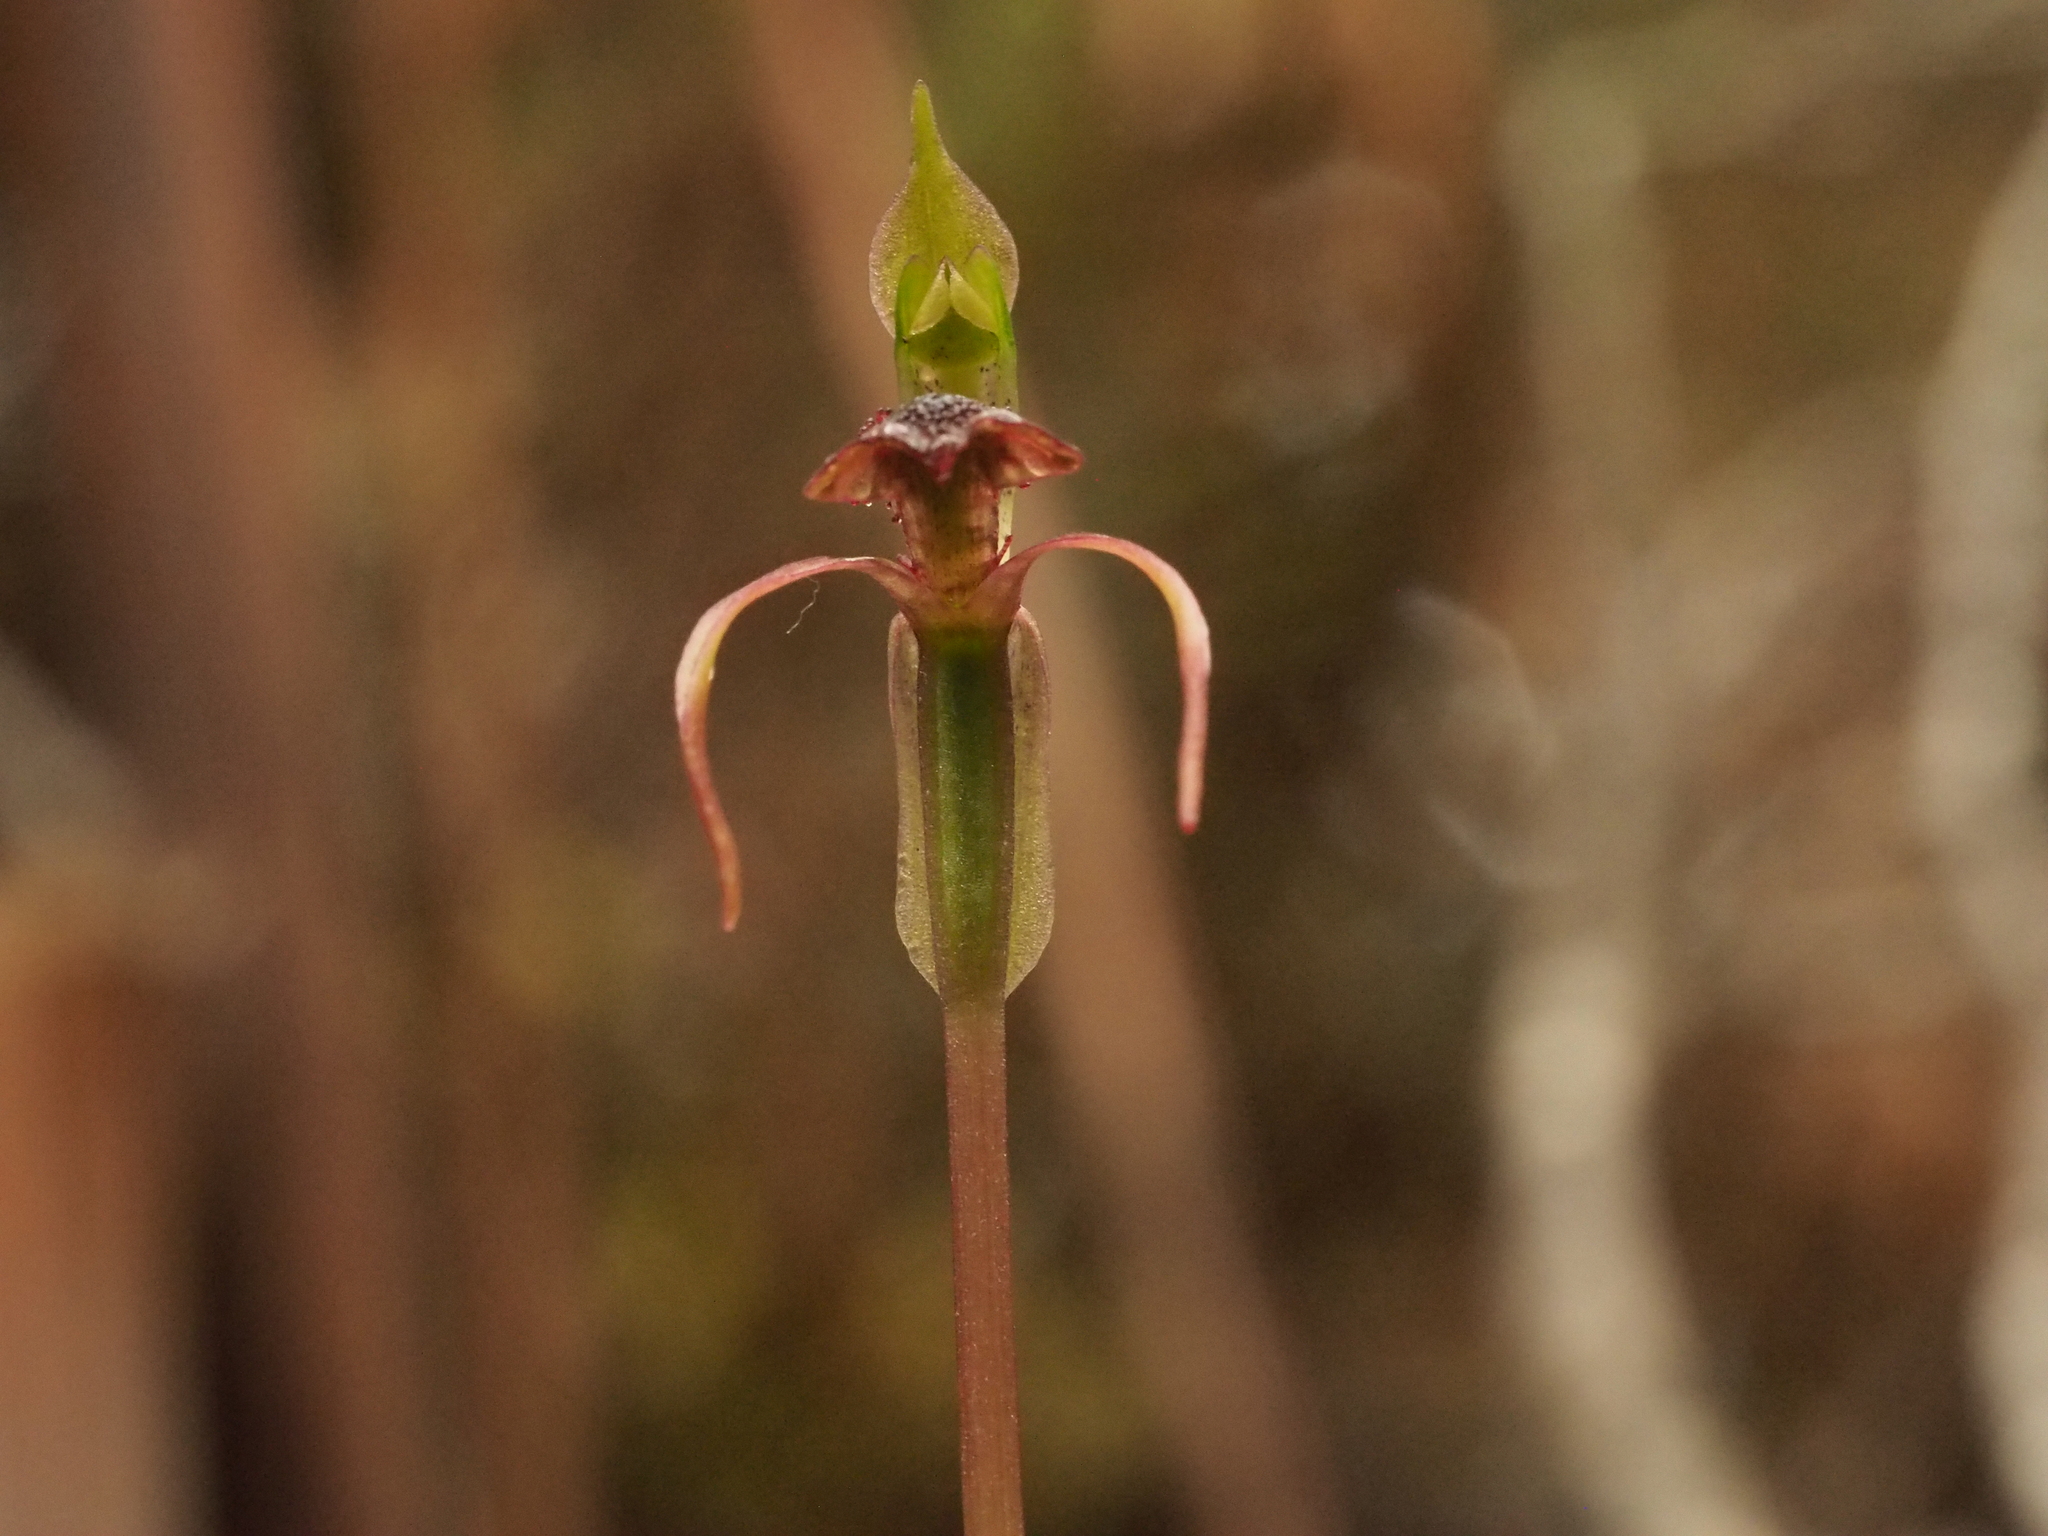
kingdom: Plantae
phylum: Tracheophyta
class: Liliopsida
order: Asparagales
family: Orchidaceae
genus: Chiloglottis
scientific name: Chiloglottis reflexa
